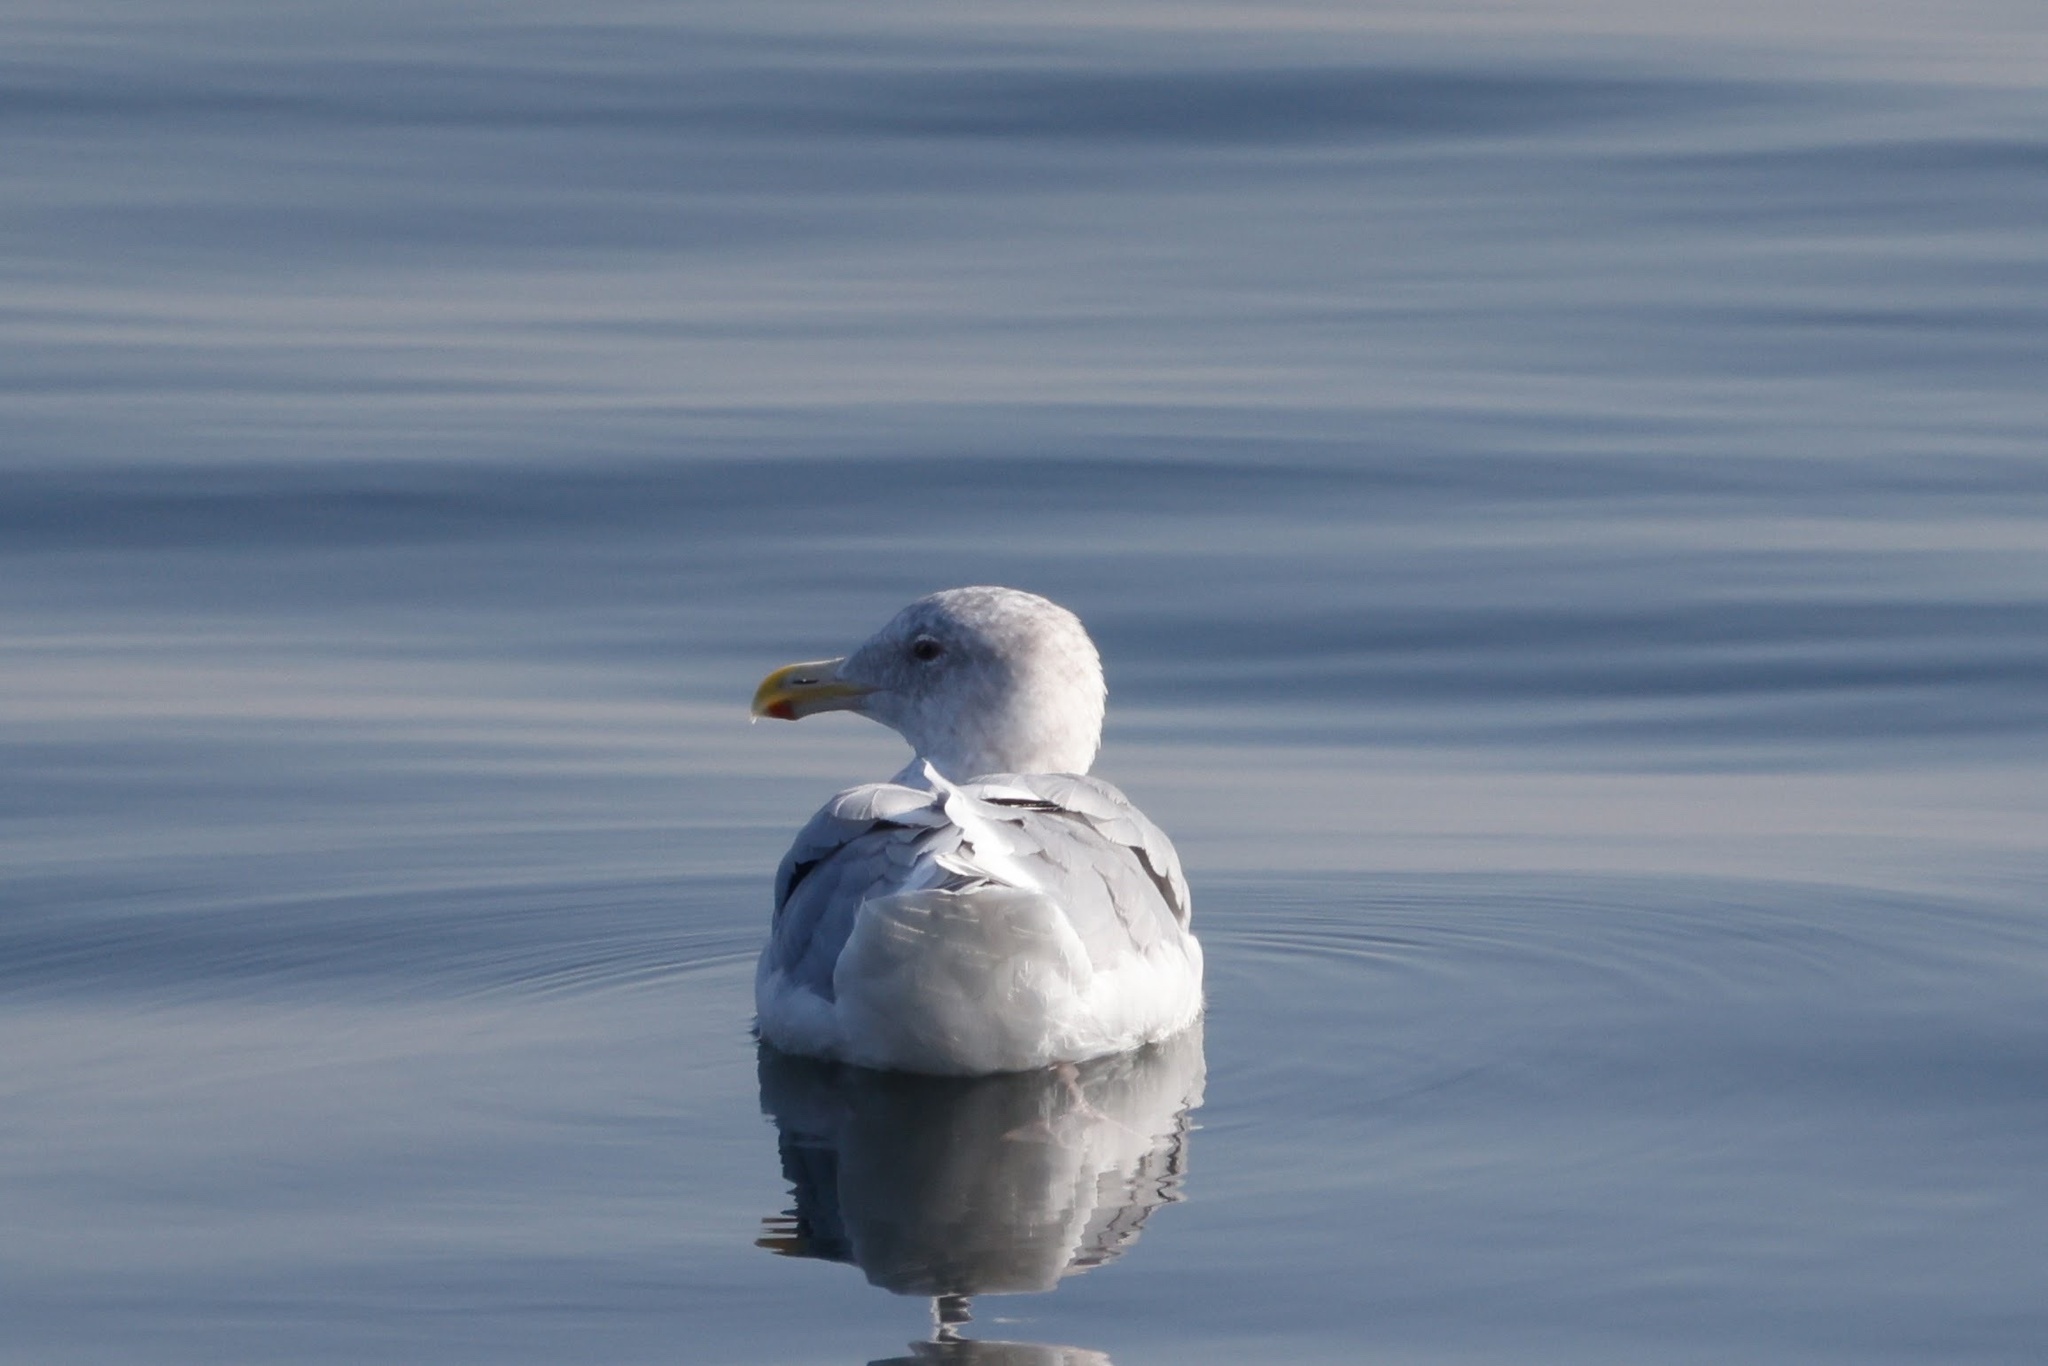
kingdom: Animalia
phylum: Chordata
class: Aves
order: Charadriiformes
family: Laridae
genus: Larus
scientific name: Larus glaucescens
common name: Glaucous-winged gull
